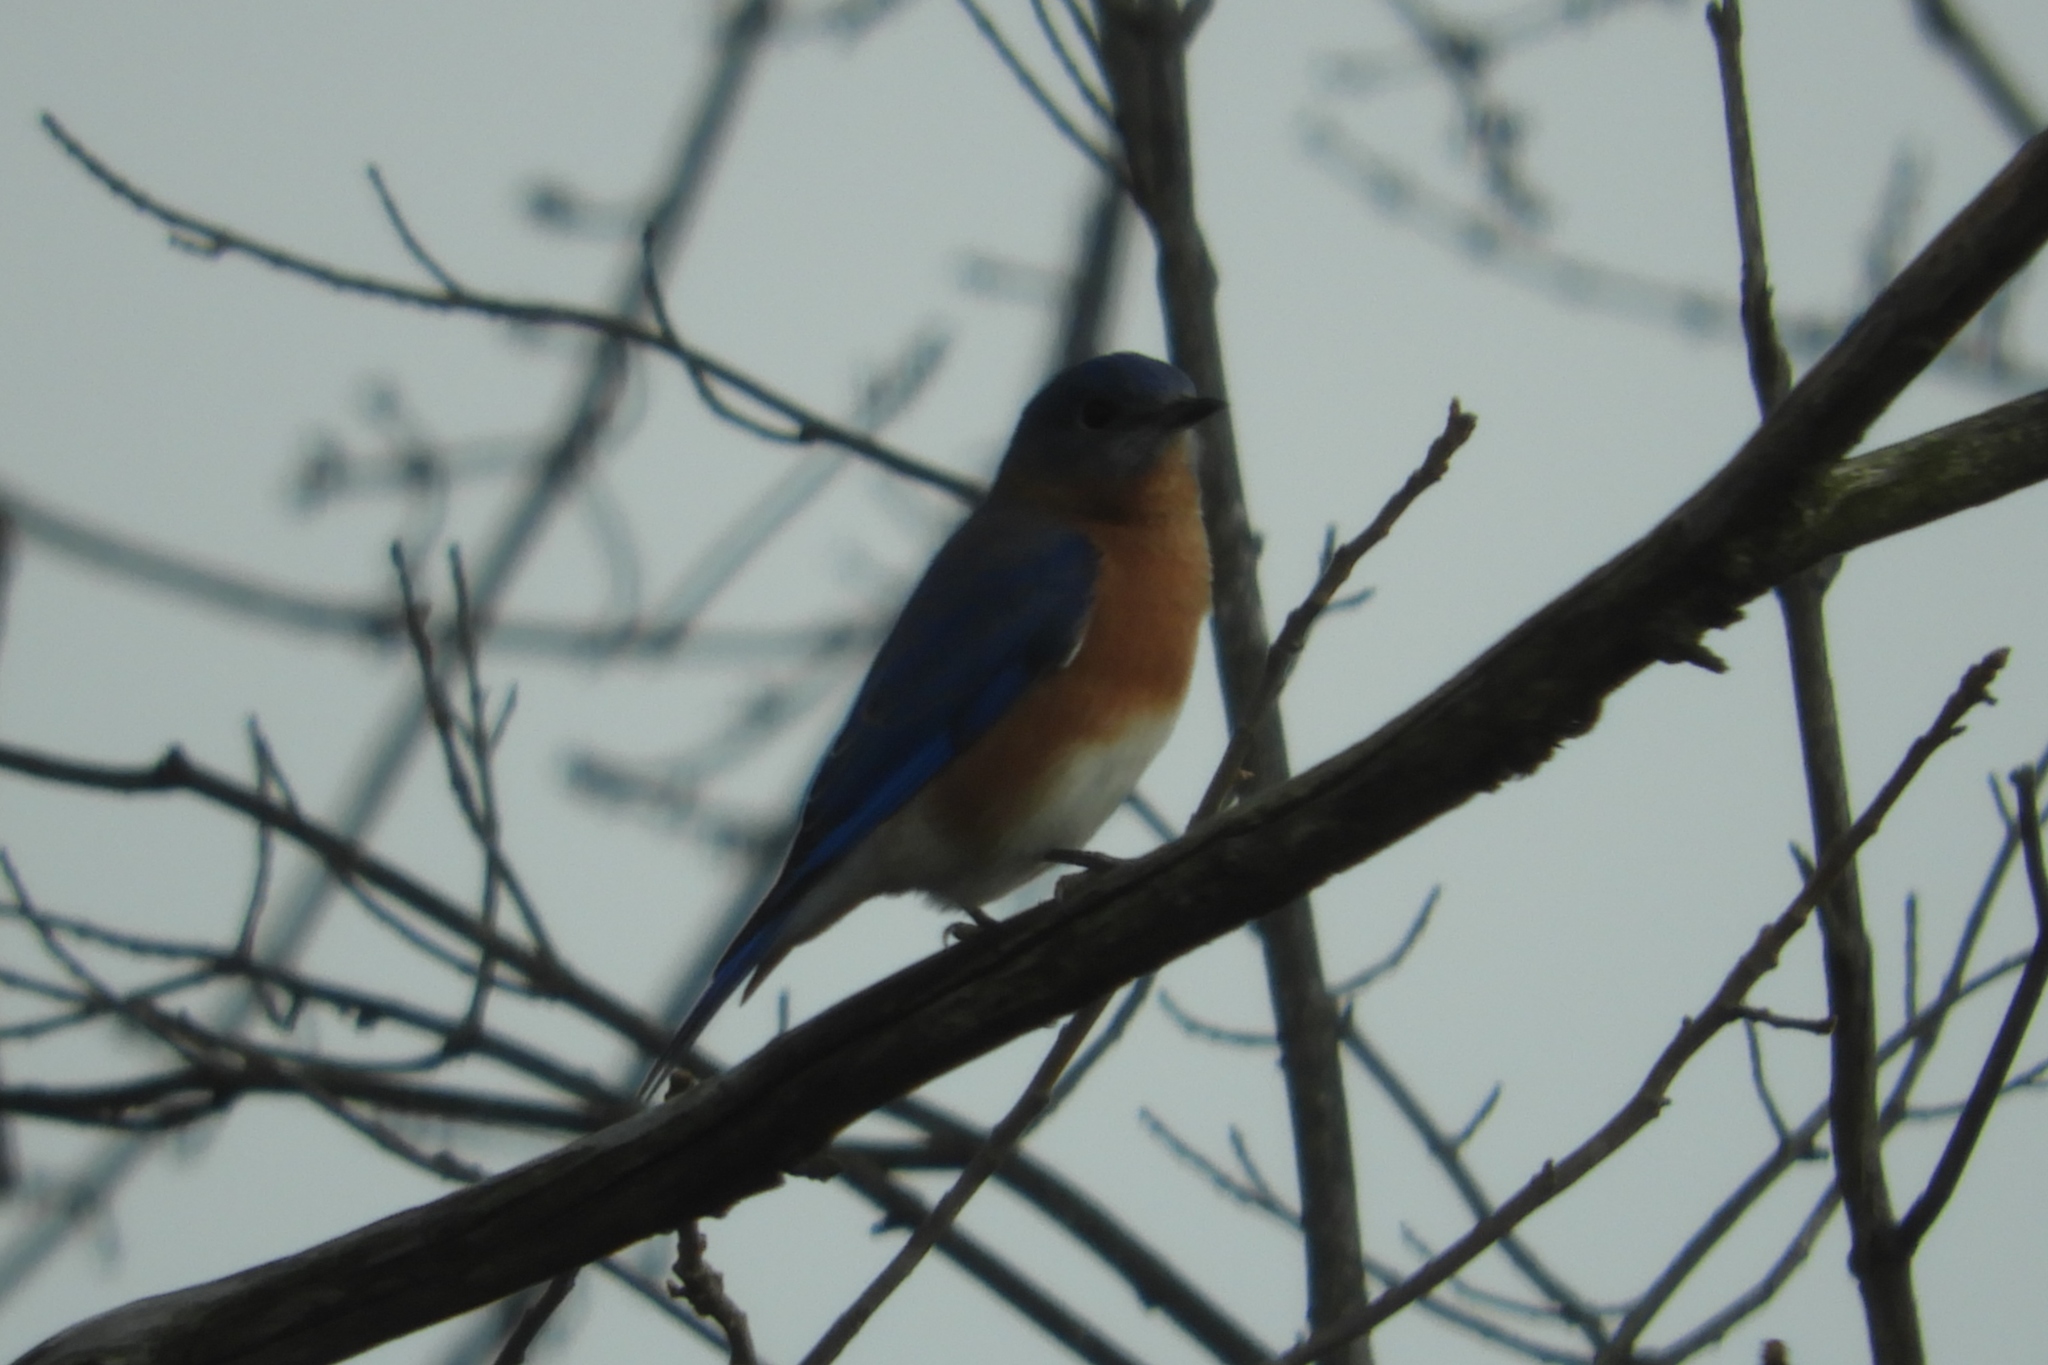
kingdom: Animalia
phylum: Chordata
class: Aves
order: Passeriformes
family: Turdidae
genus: Sialia
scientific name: Sialia sialis
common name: Eastern bluebird
